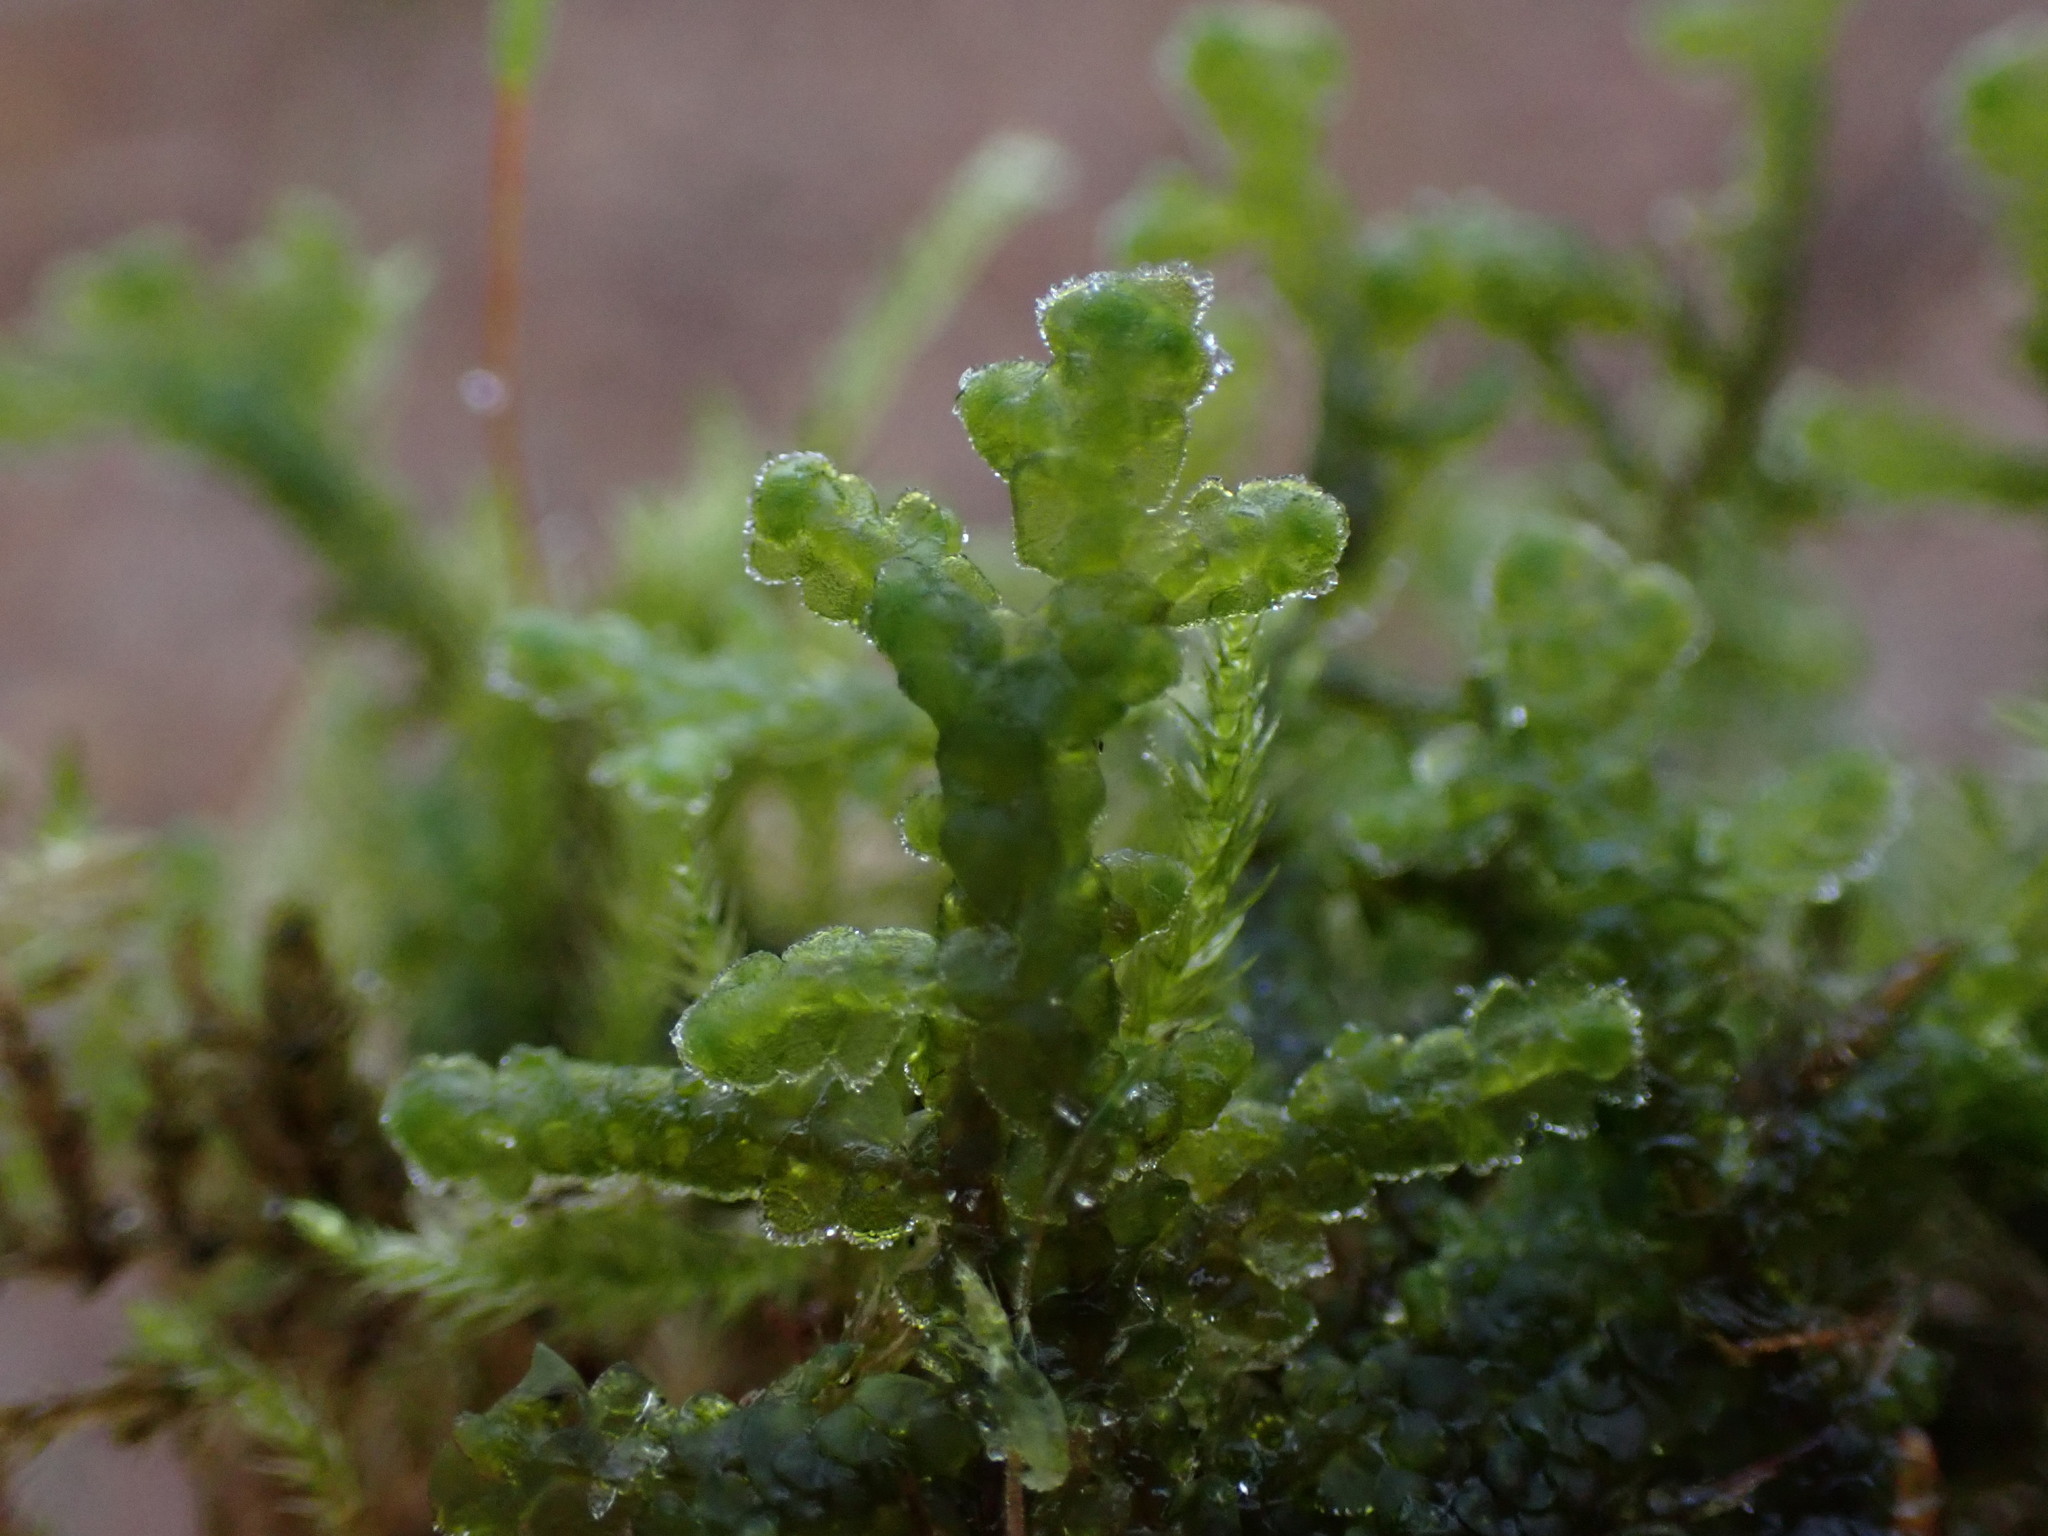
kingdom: Plantae
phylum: Marchantiophyta
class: Jungermanniopsida
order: Porellales
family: Porellaceae
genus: Porella
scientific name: Porella cordaeana
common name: Cliff scalewort
